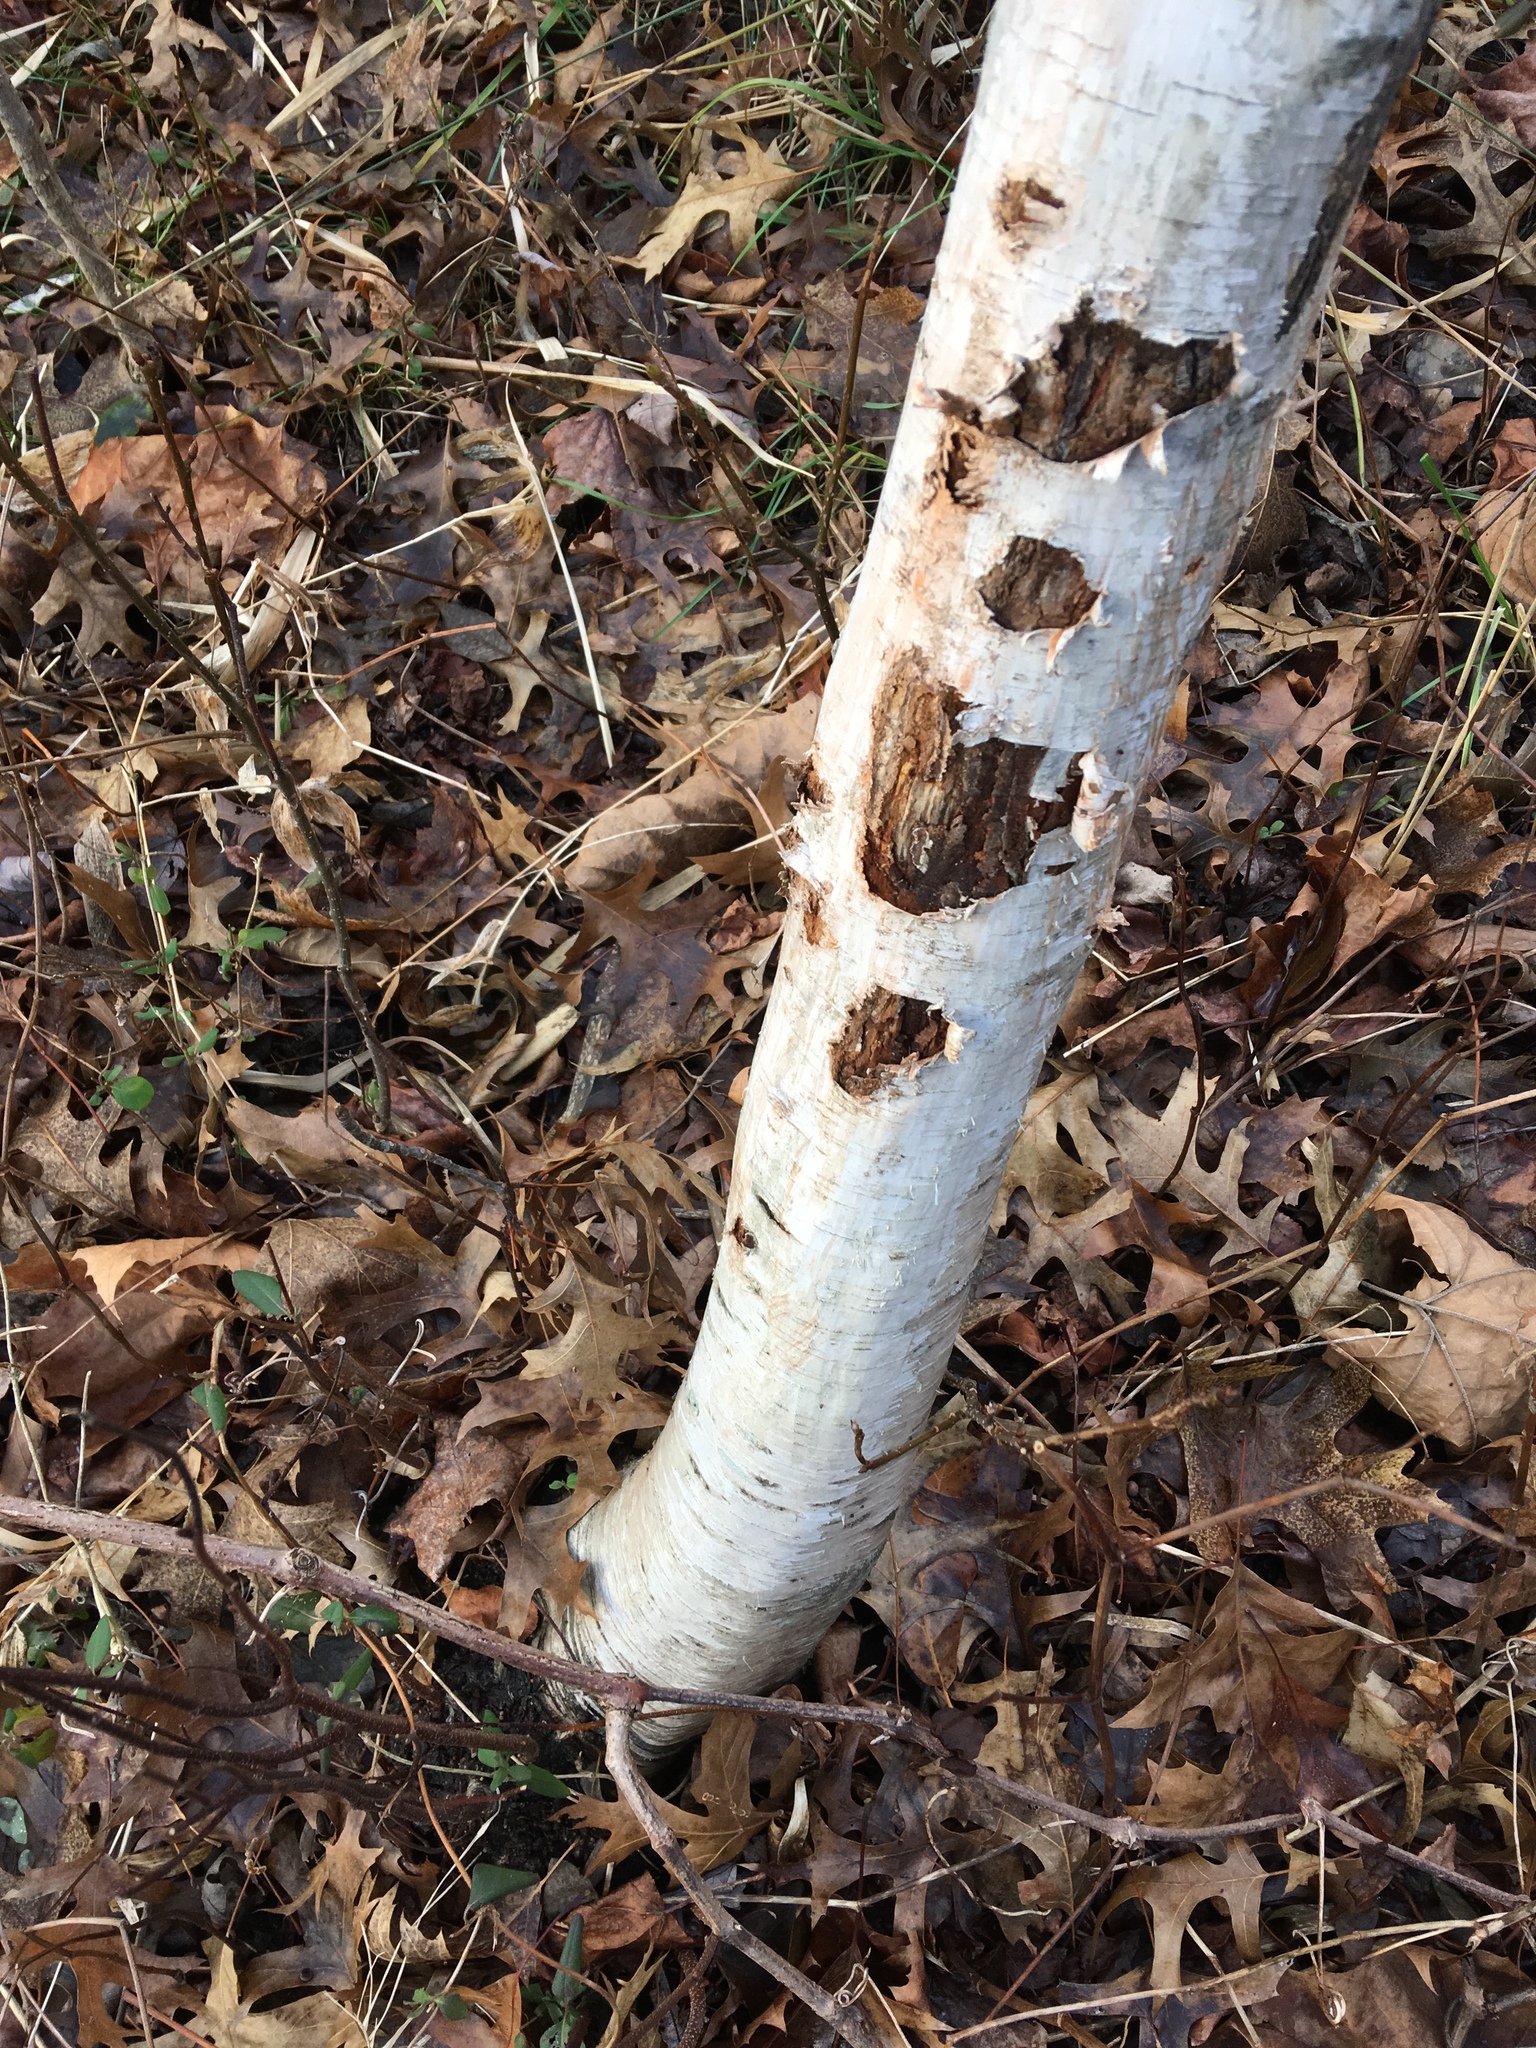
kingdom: Plantae
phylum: Tracheophyta
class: Magnoliopsida
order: Fagales
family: Betulaceae
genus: Betula
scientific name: Betula populifolia
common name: Fire birch
